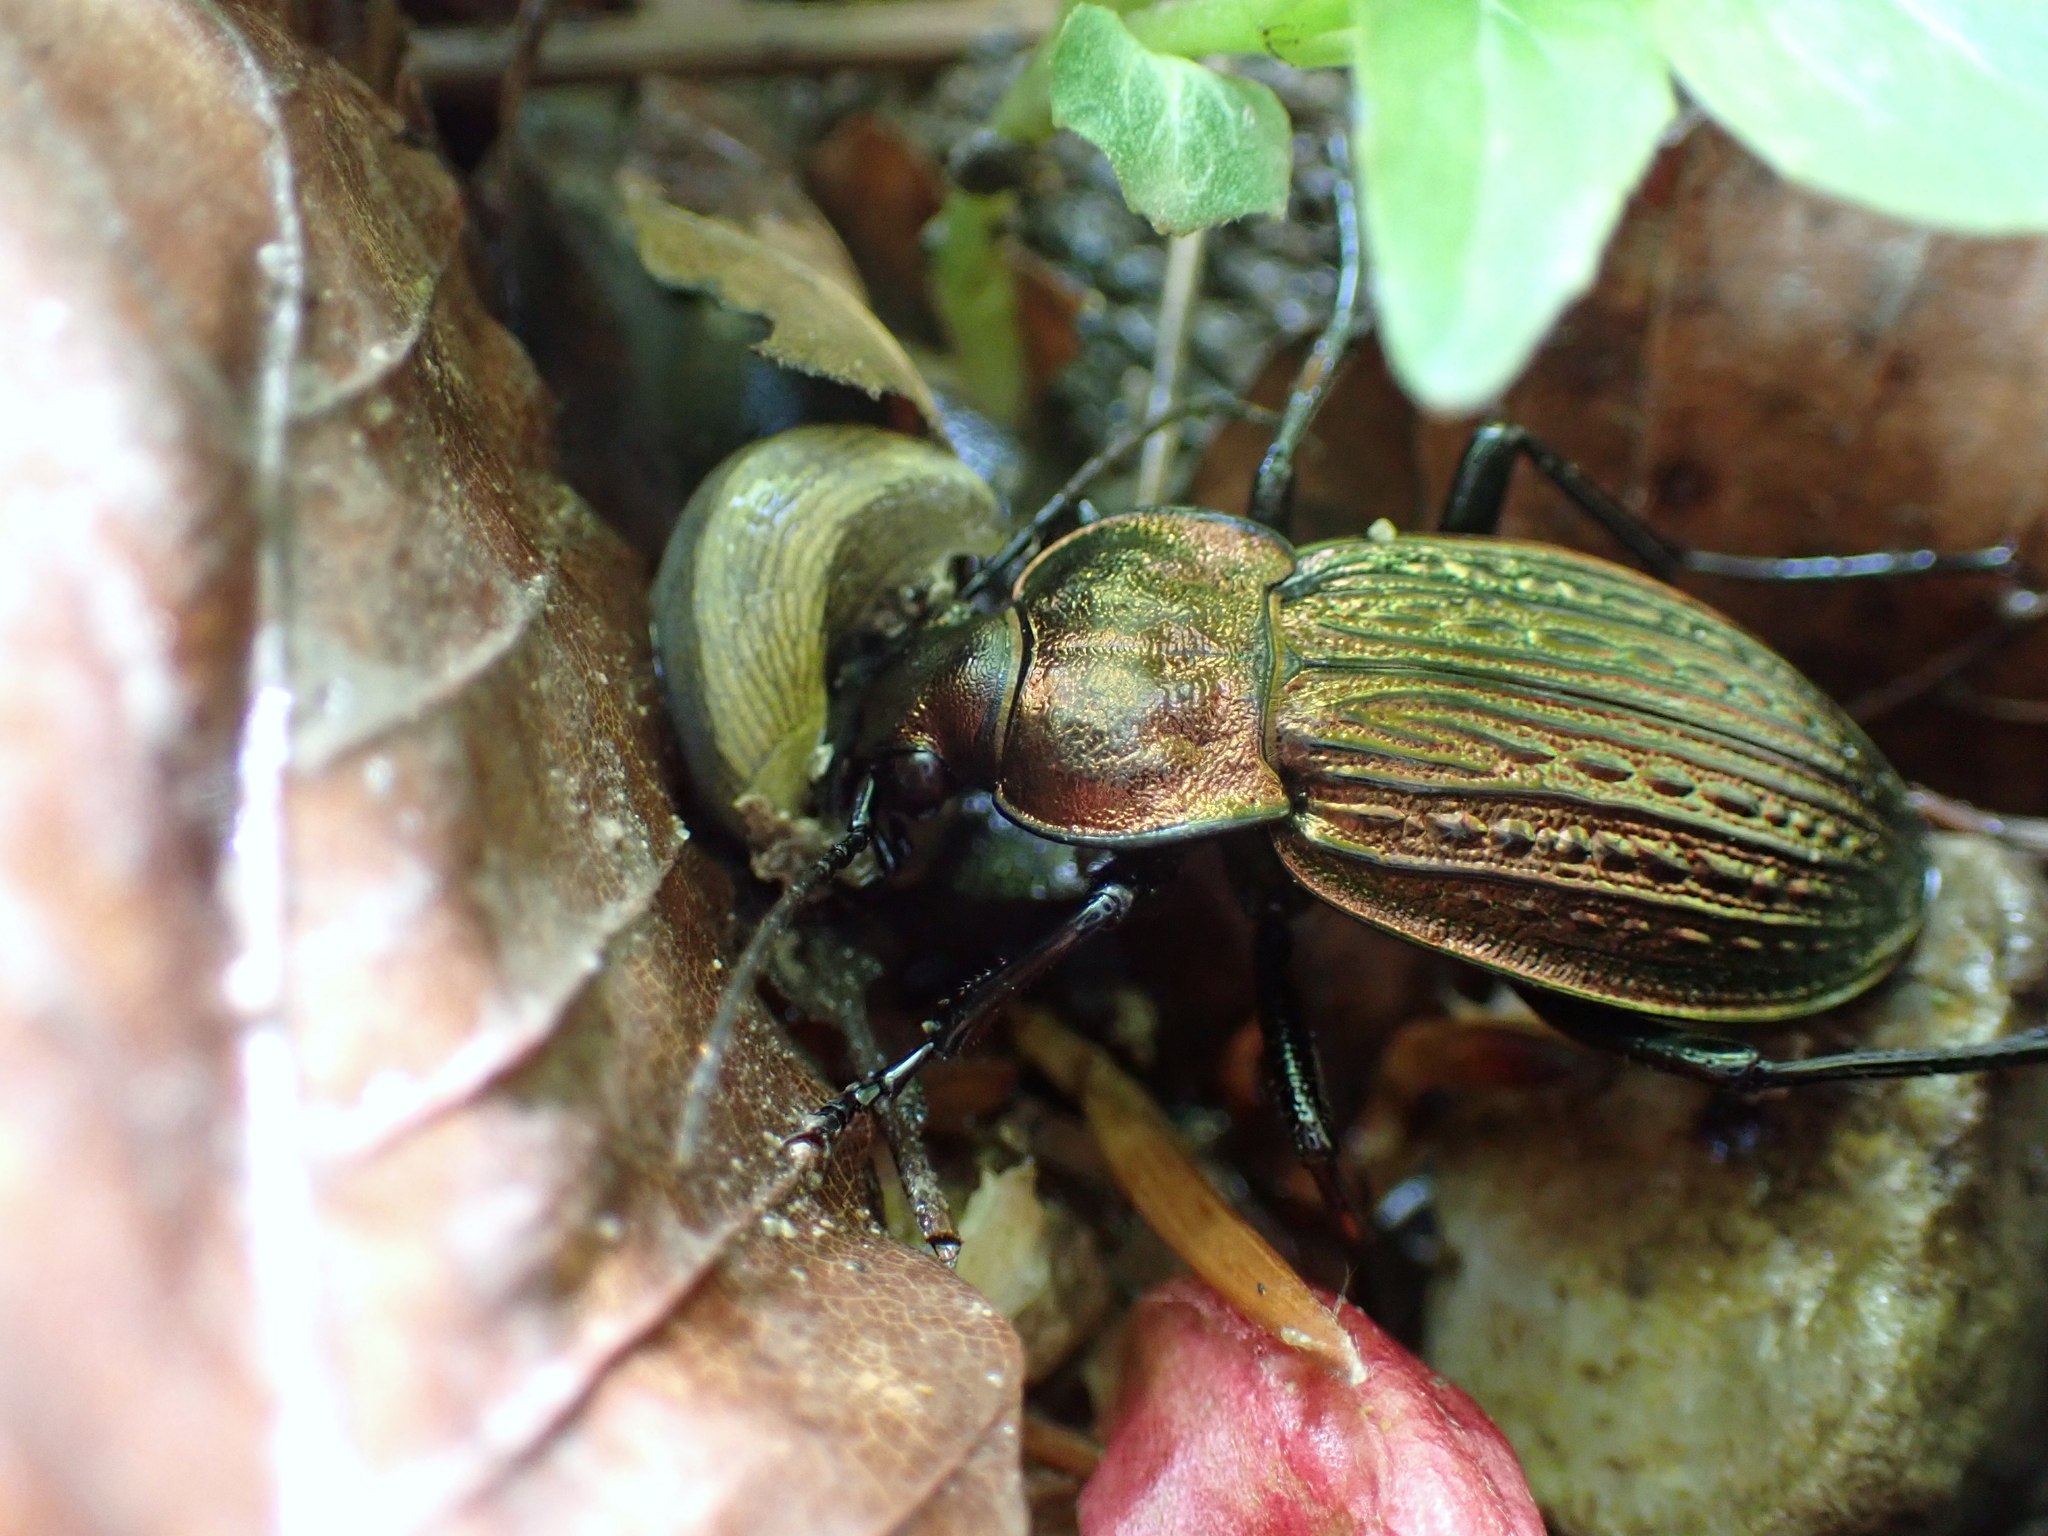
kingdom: Animalia
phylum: Arthropoda
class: Insecta
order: Coleoptera
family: Carabidae
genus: Carabus
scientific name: Carabus ulrichii
